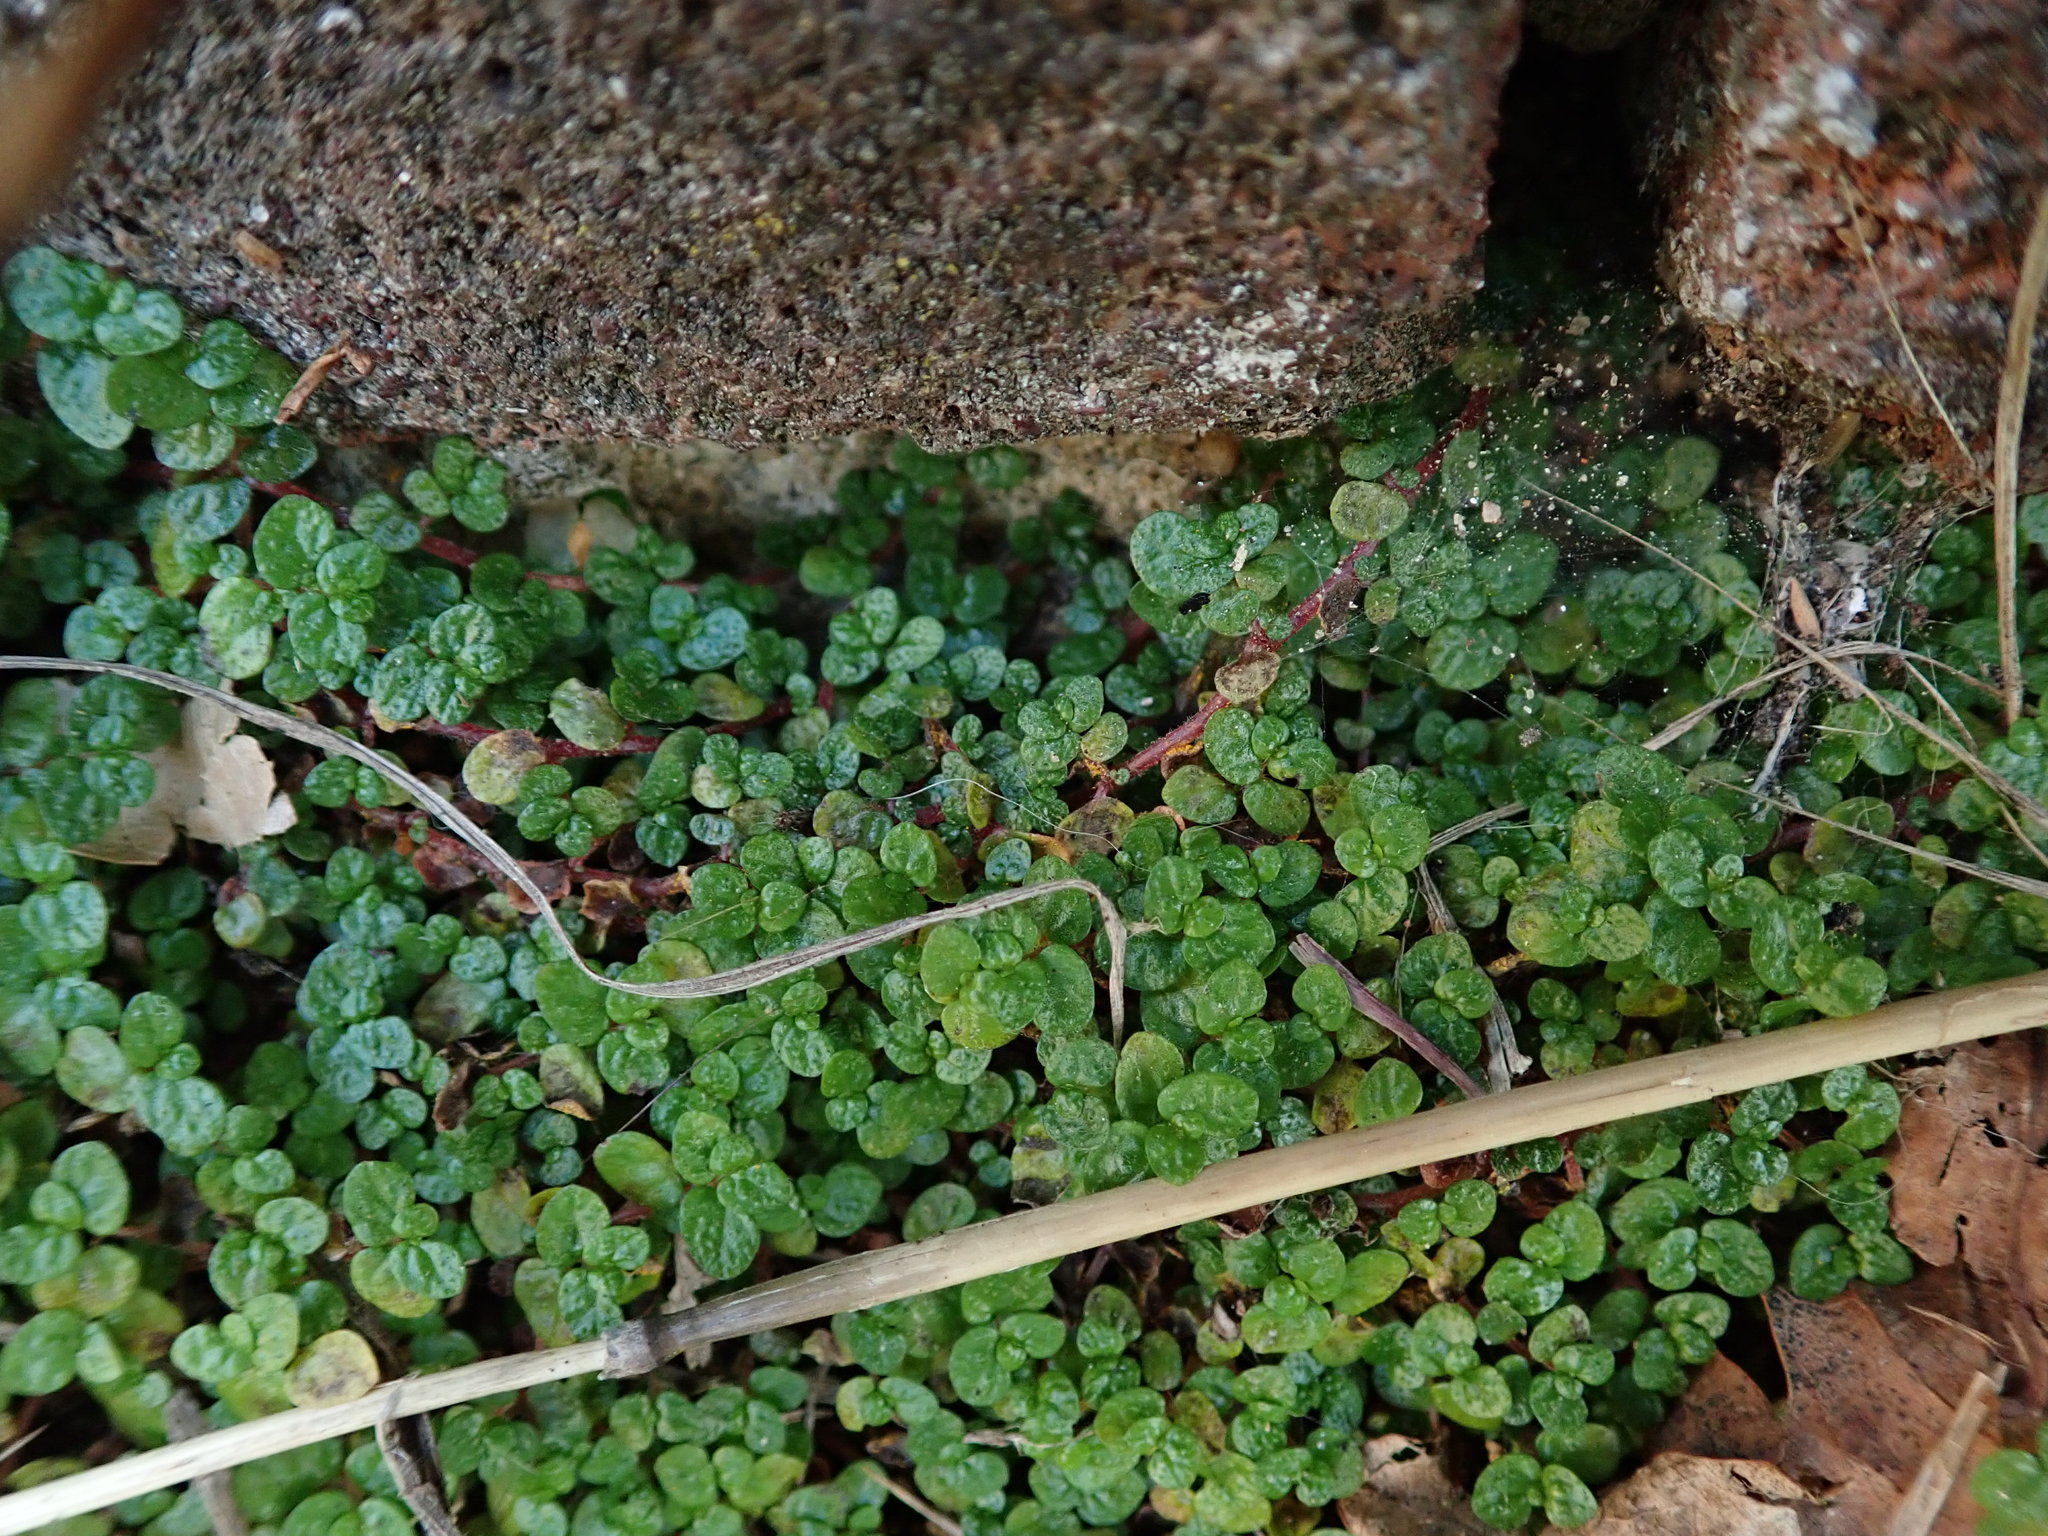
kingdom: Plantae
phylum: Tracheophyta
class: Magnoliopsida
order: Rosales
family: Urticaceae
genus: Soleirolia
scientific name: Soleirolia soleirolii
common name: Mind-your-own-business
